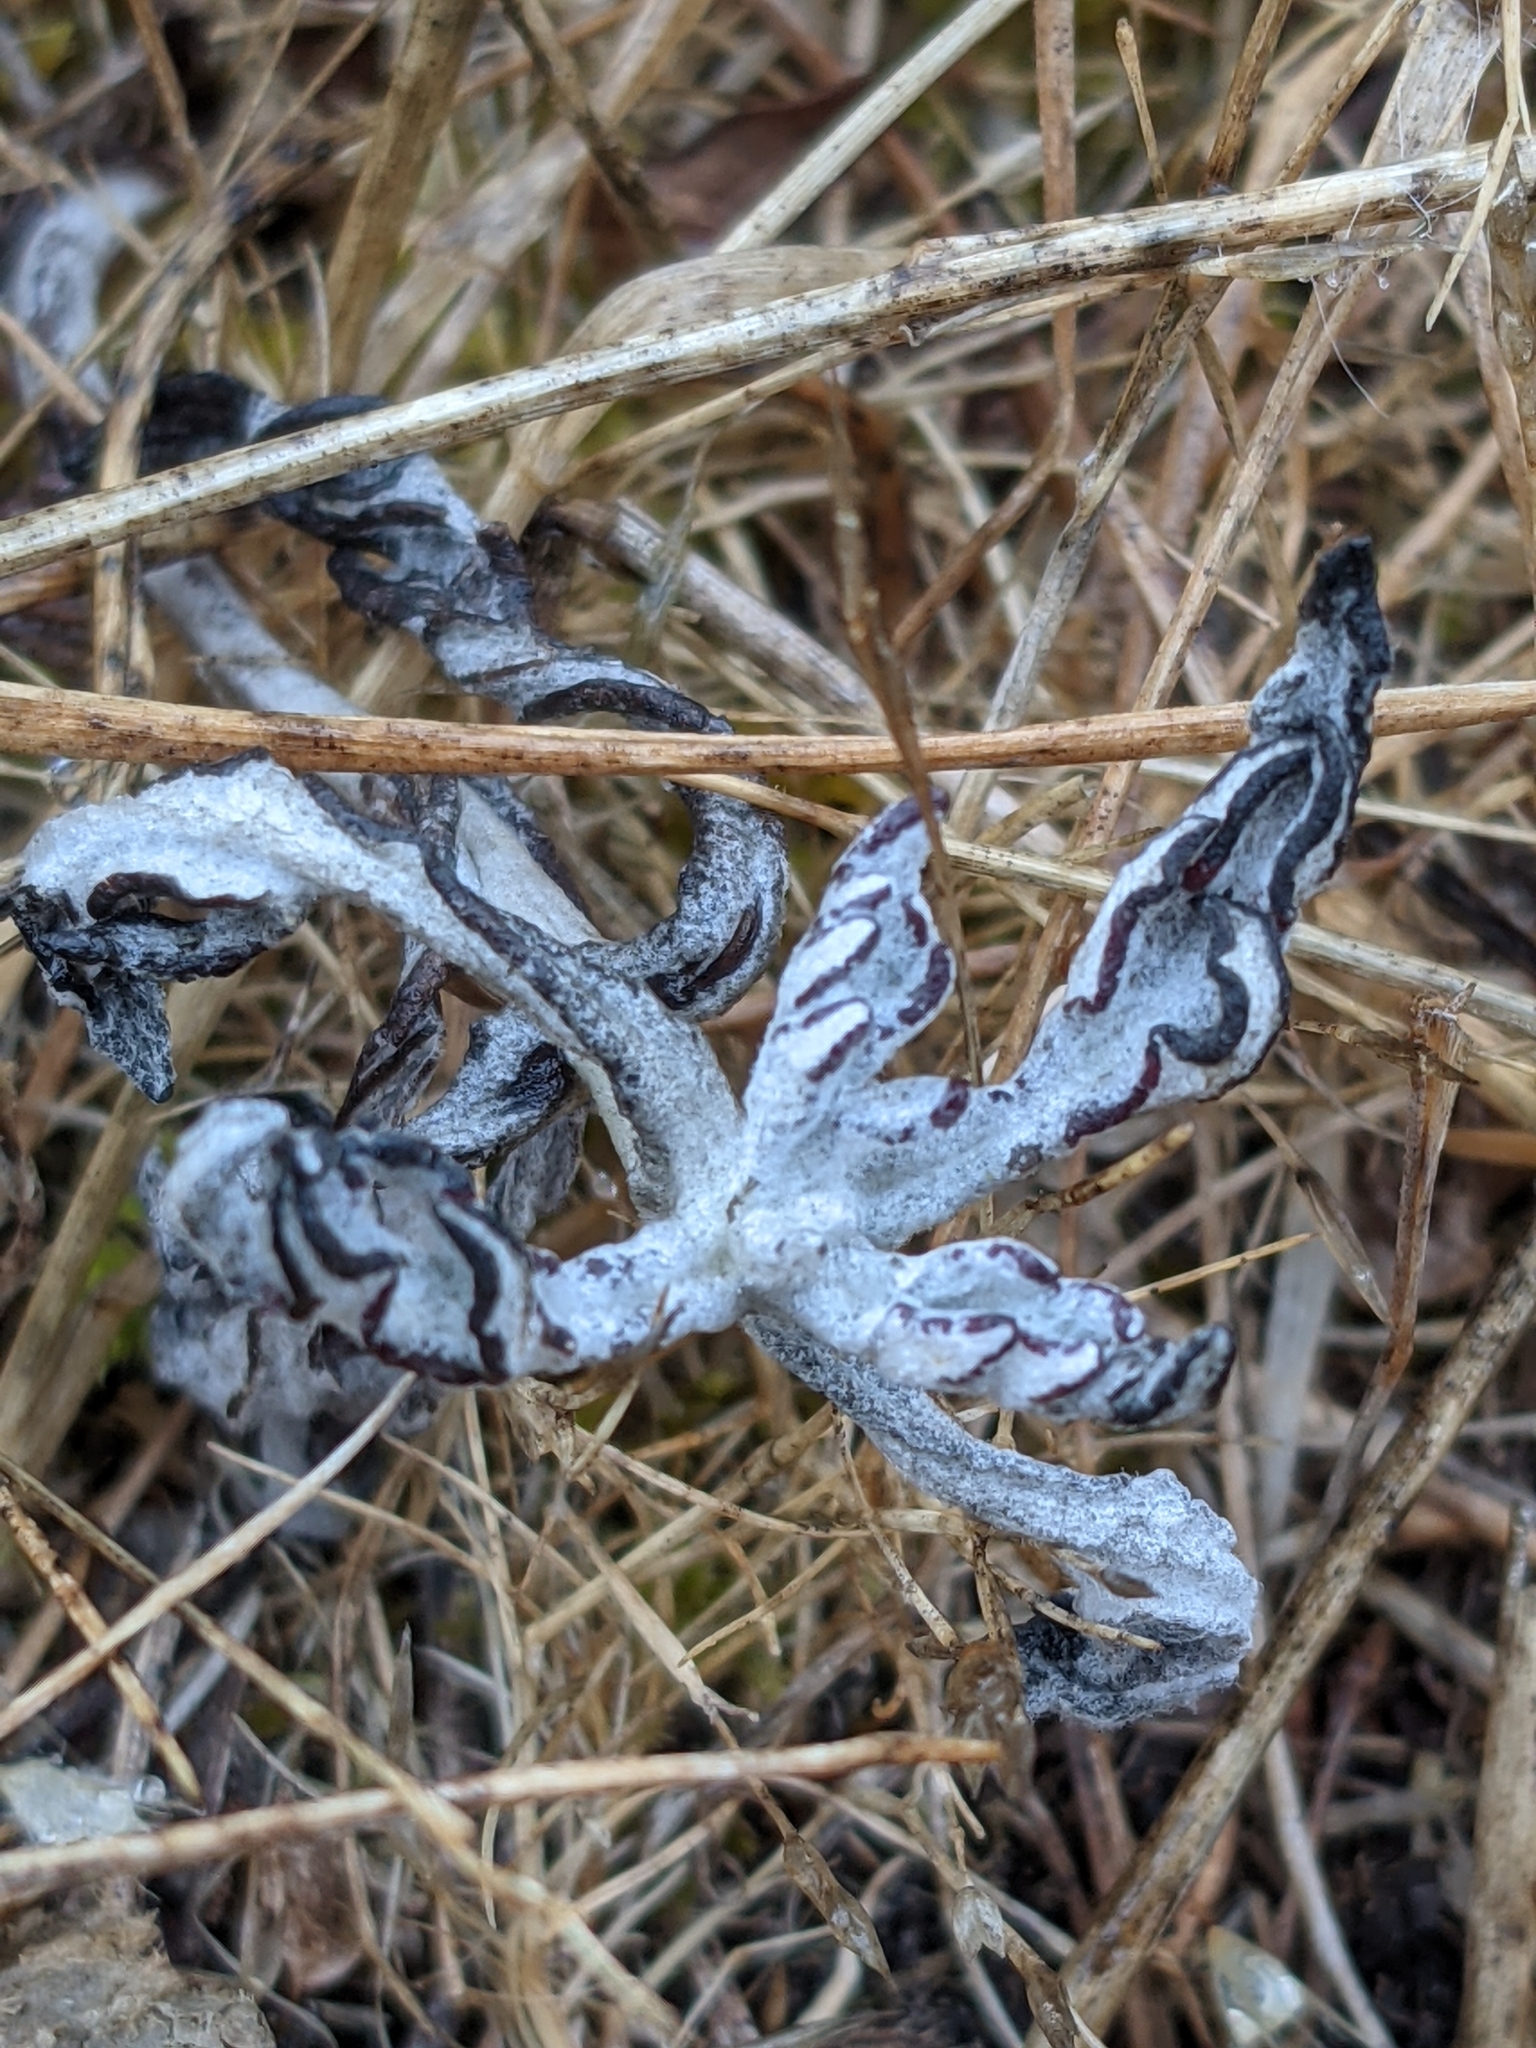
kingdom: Plantae
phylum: Tracheophyta
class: Magnoliopsida
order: Asterales
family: Asteraceae
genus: Eriophyllum
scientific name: Eriophyllum lanatum
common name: Common woolly-sunflower
